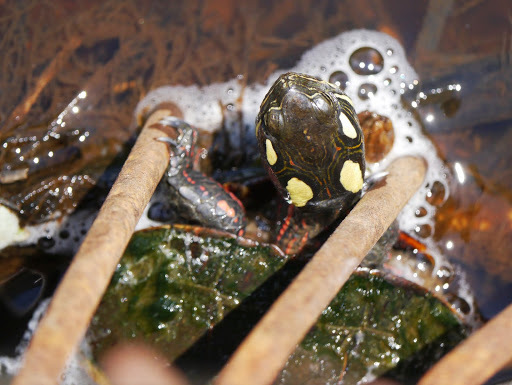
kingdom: Animalia
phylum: Chordata
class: Testudines
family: Emydidae
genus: Chrysemys
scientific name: Chrysemys picta
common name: Painted turtle
